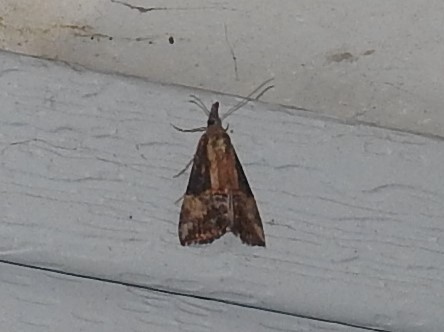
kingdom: Animalia
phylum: Arthropoda
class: Insecta
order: Lepidoptera
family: Erebidae
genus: Hypena
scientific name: Hypena scabra
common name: Green cloverworm
